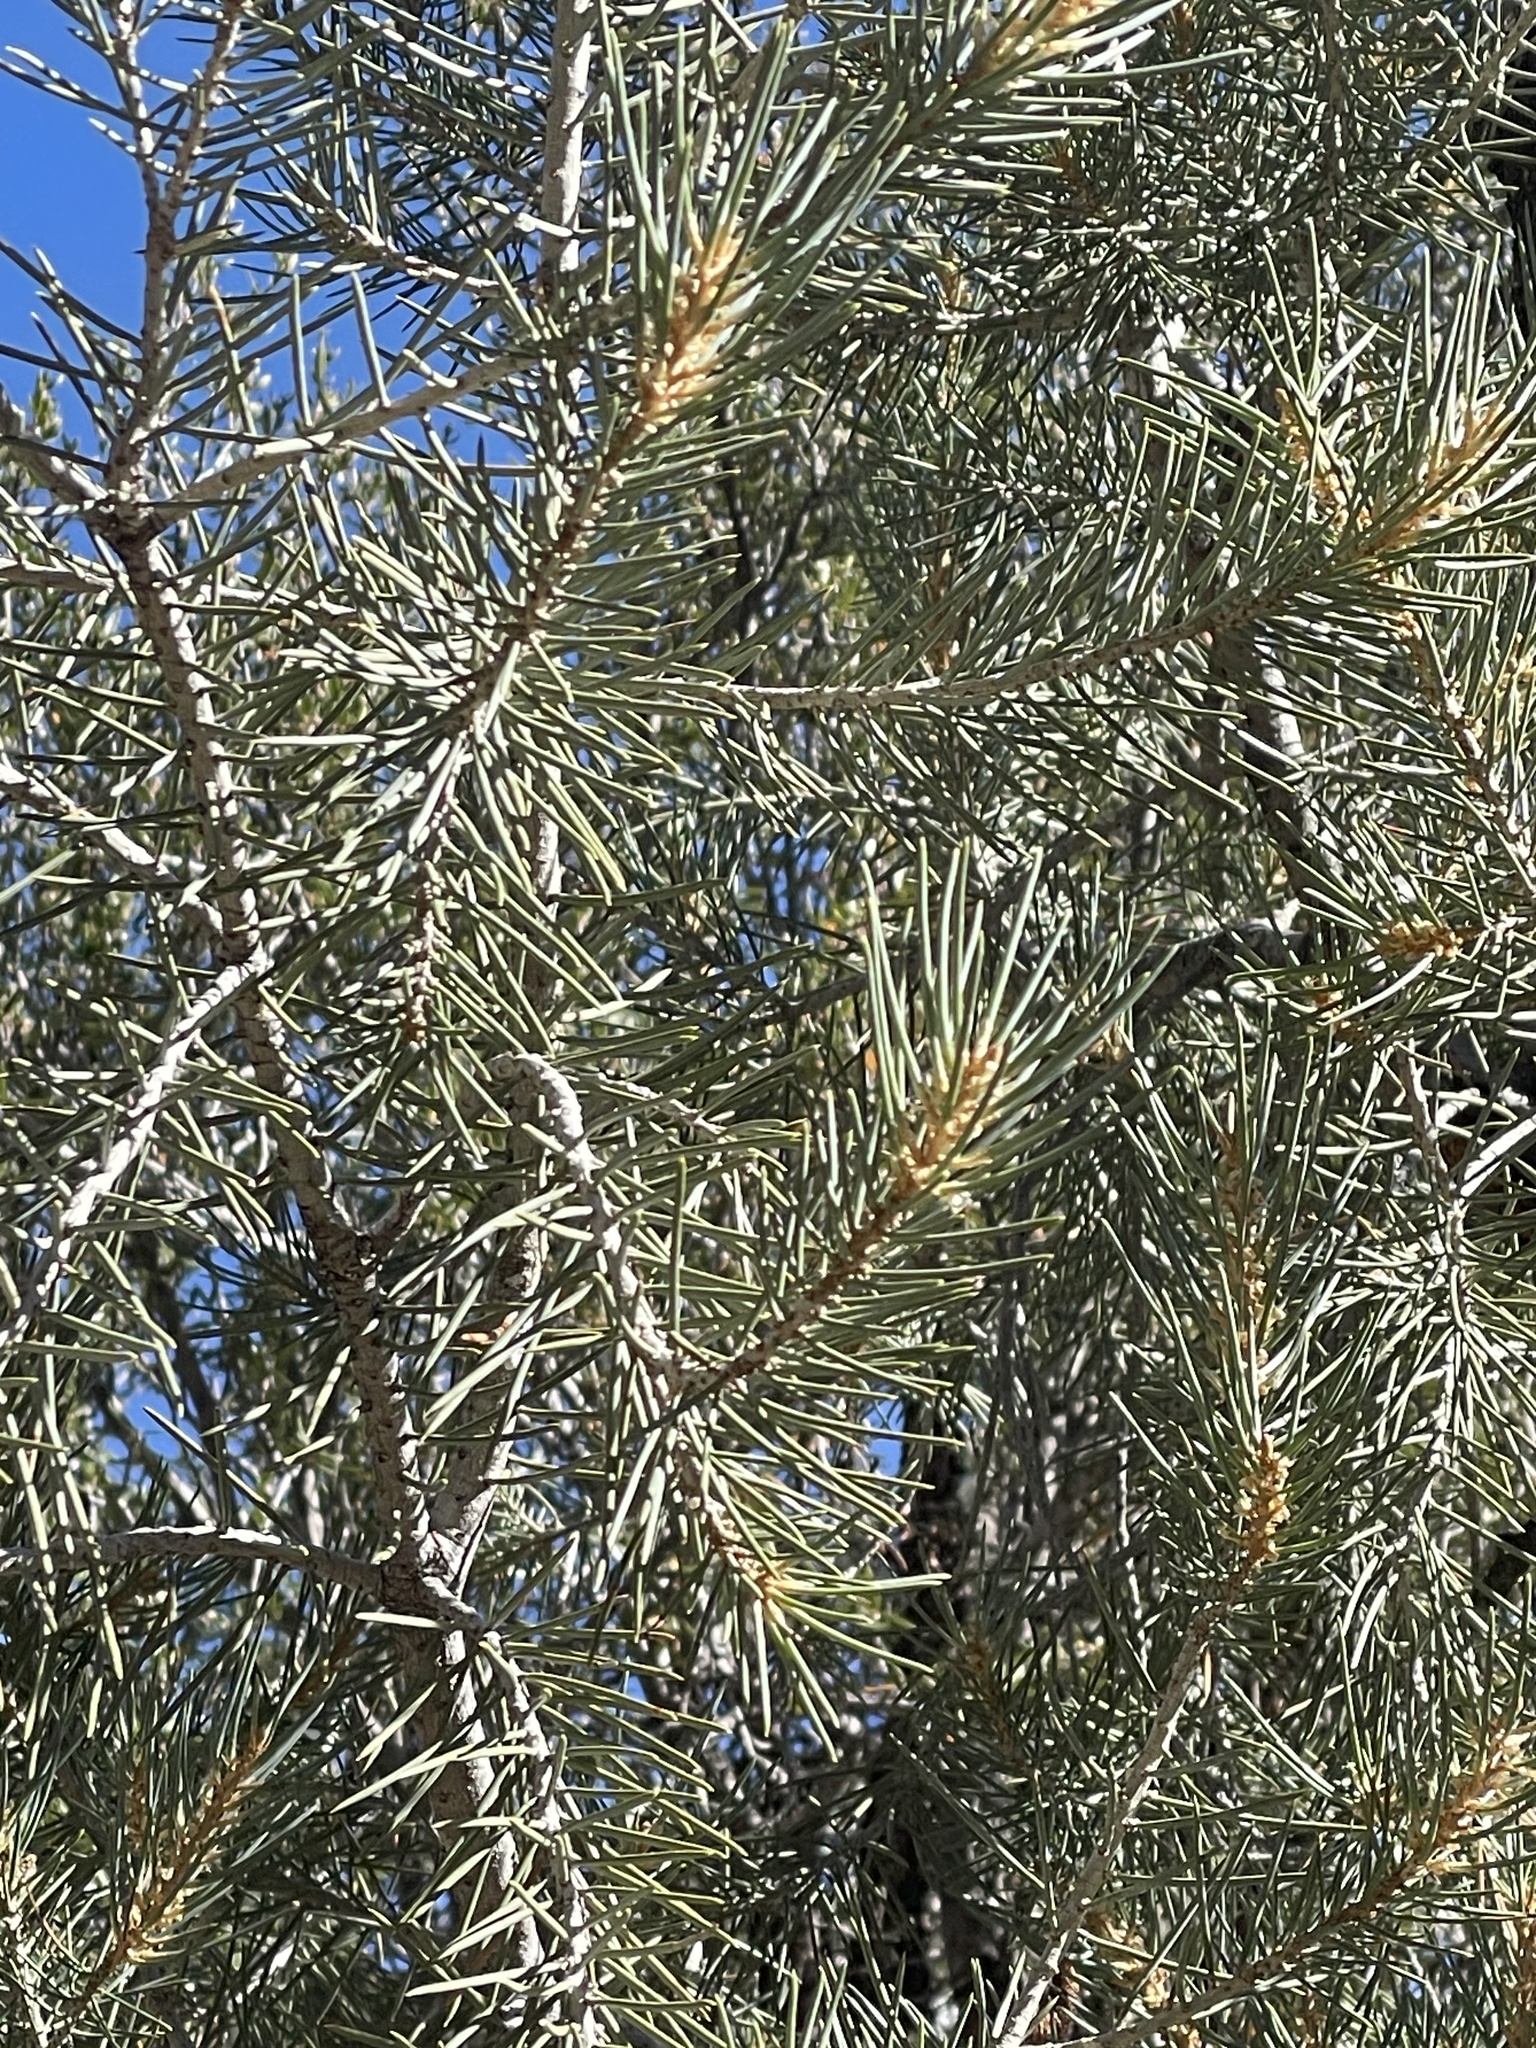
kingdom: Plantae
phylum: Tracheophyta
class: Pinopsida
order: Pinales
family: Pinaceae
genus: Pinus
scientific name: Pinus monophylla
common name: One-leaved nut pine
